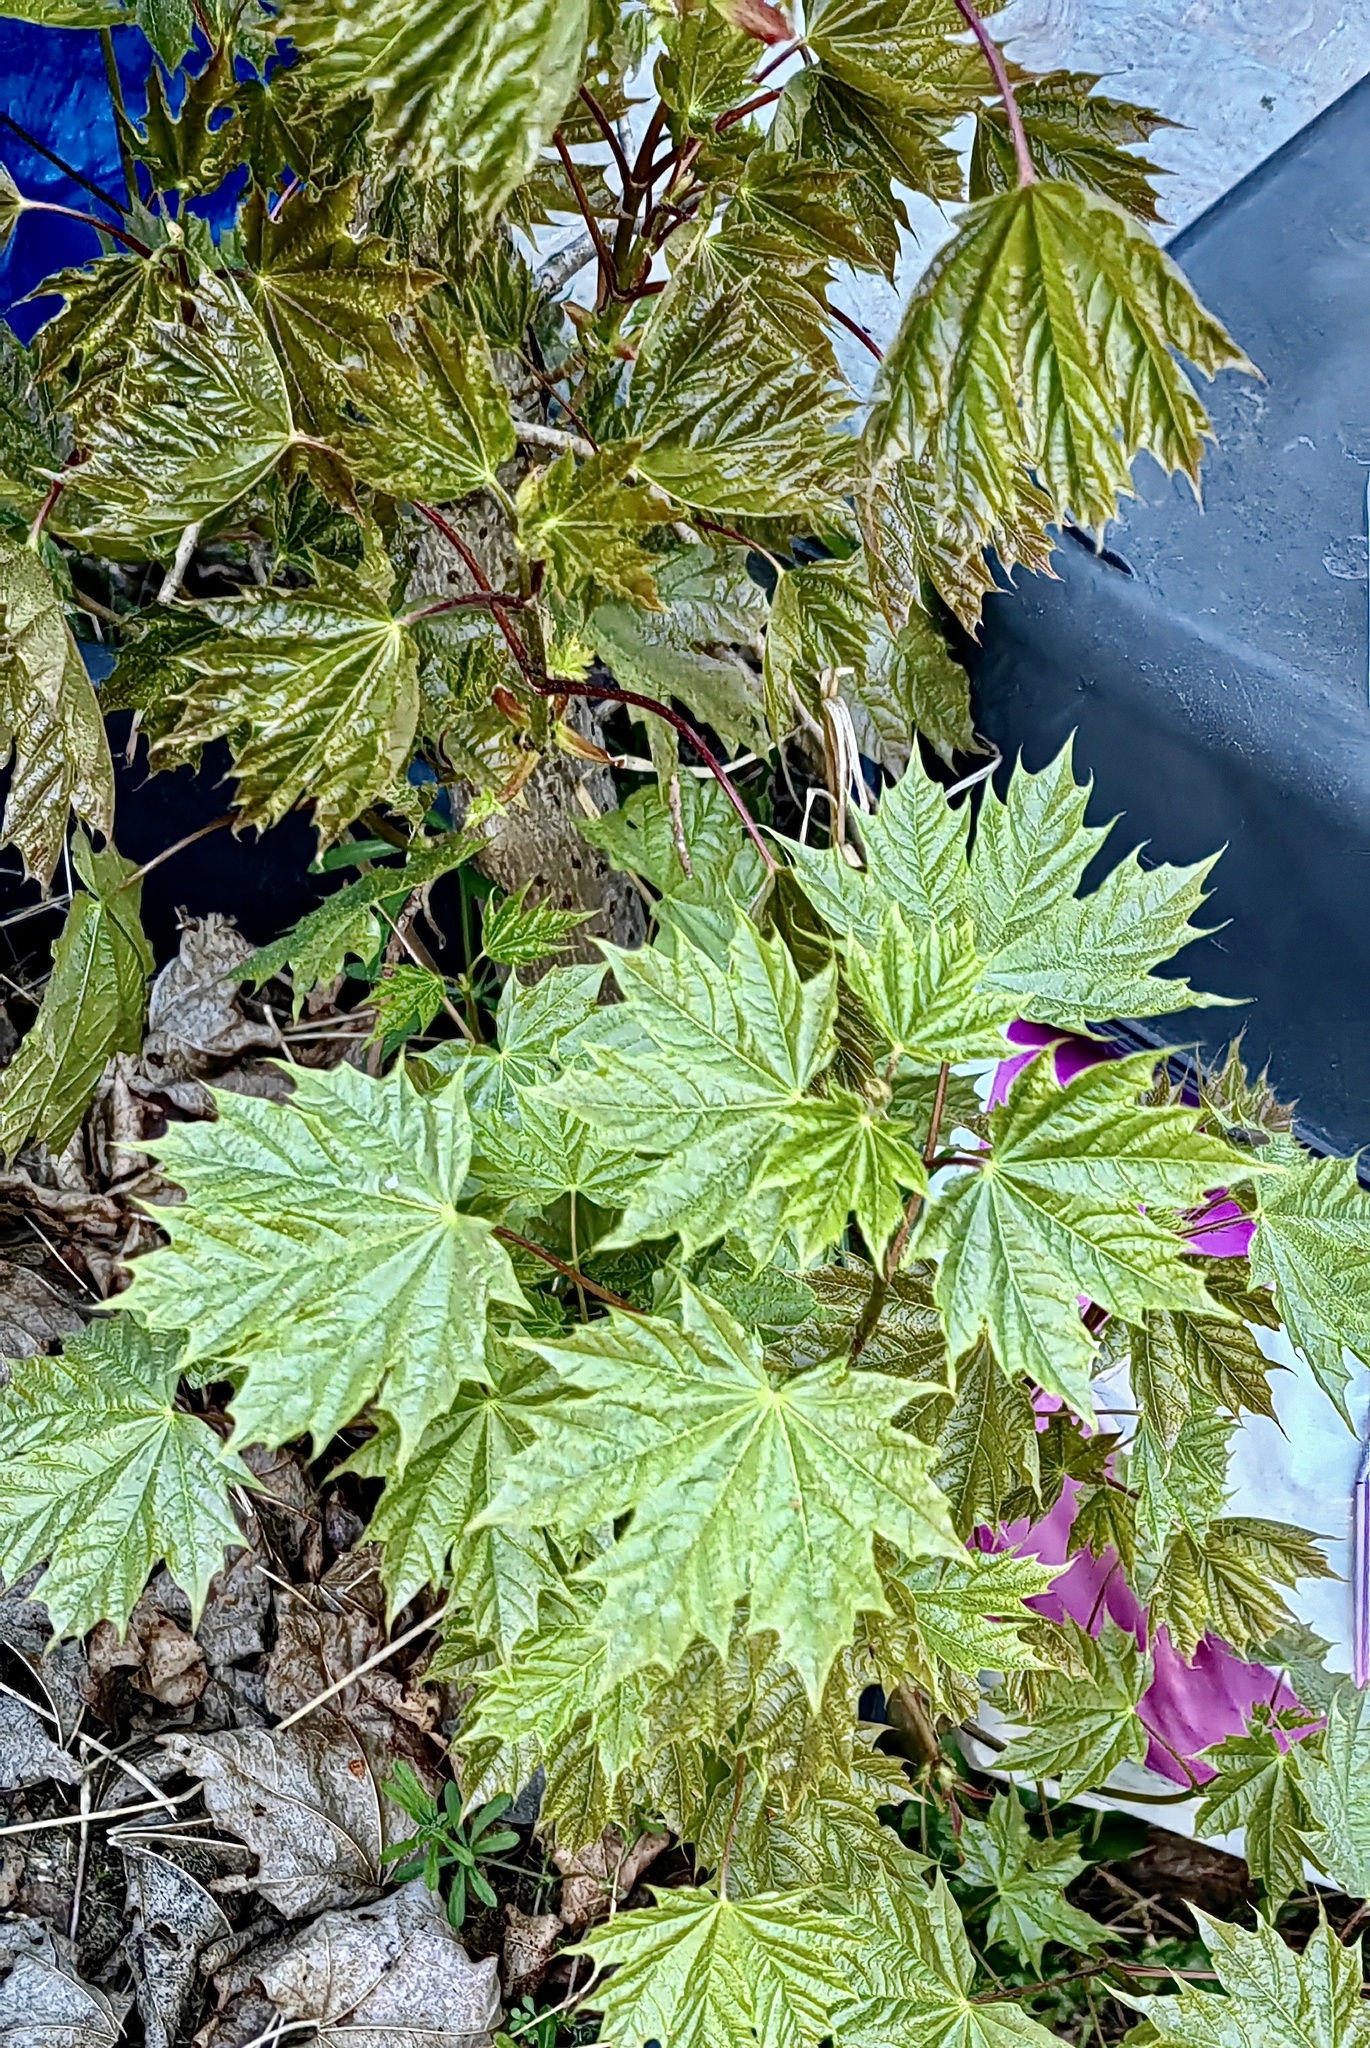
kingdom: Plantae
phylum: Tracheophyta
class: Magnoliopsida
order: Sapindales
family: Sapindaceae
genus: Acer
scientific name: Acer platanoides
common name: Norway maple
